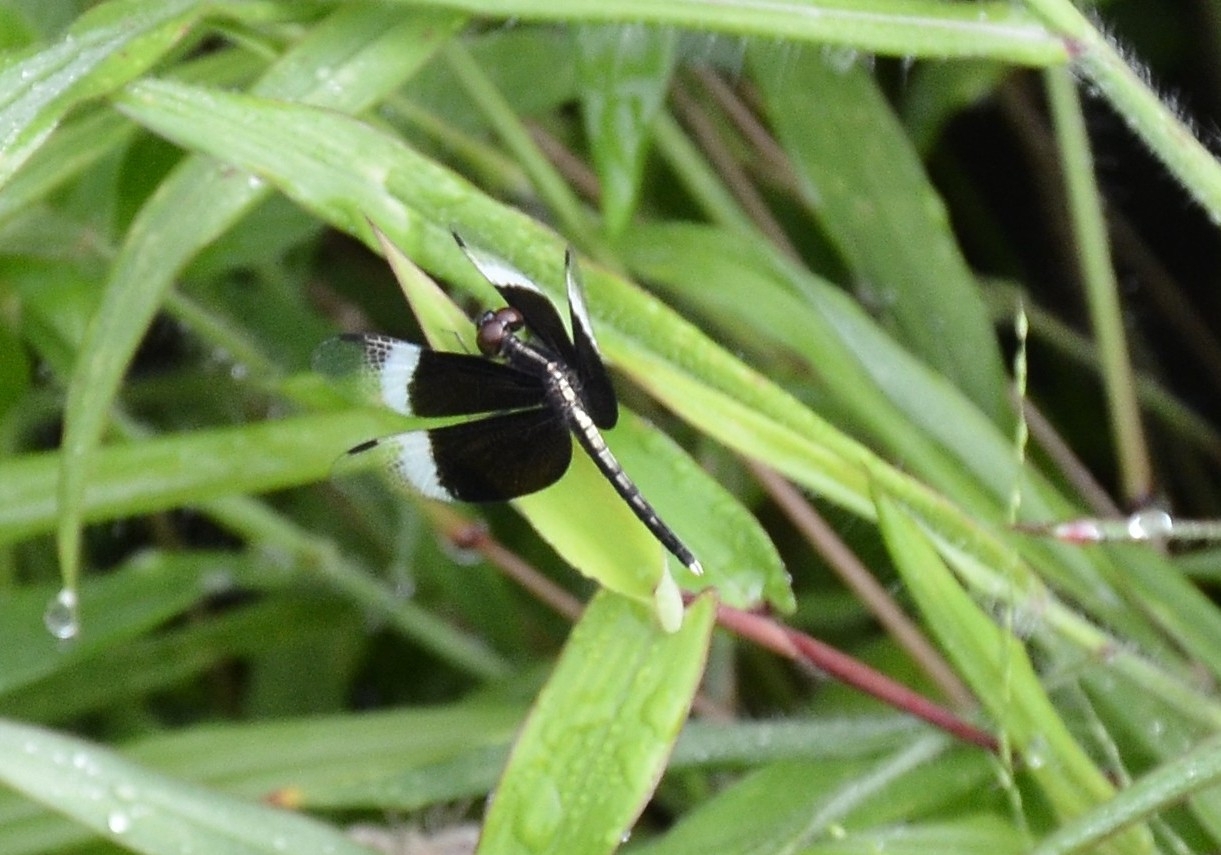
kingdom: Animalia
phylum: Arthropoda
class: Insecta
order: Odonata
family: Libellulidae
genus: Neurothemis
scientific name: Neurothemis tullia
